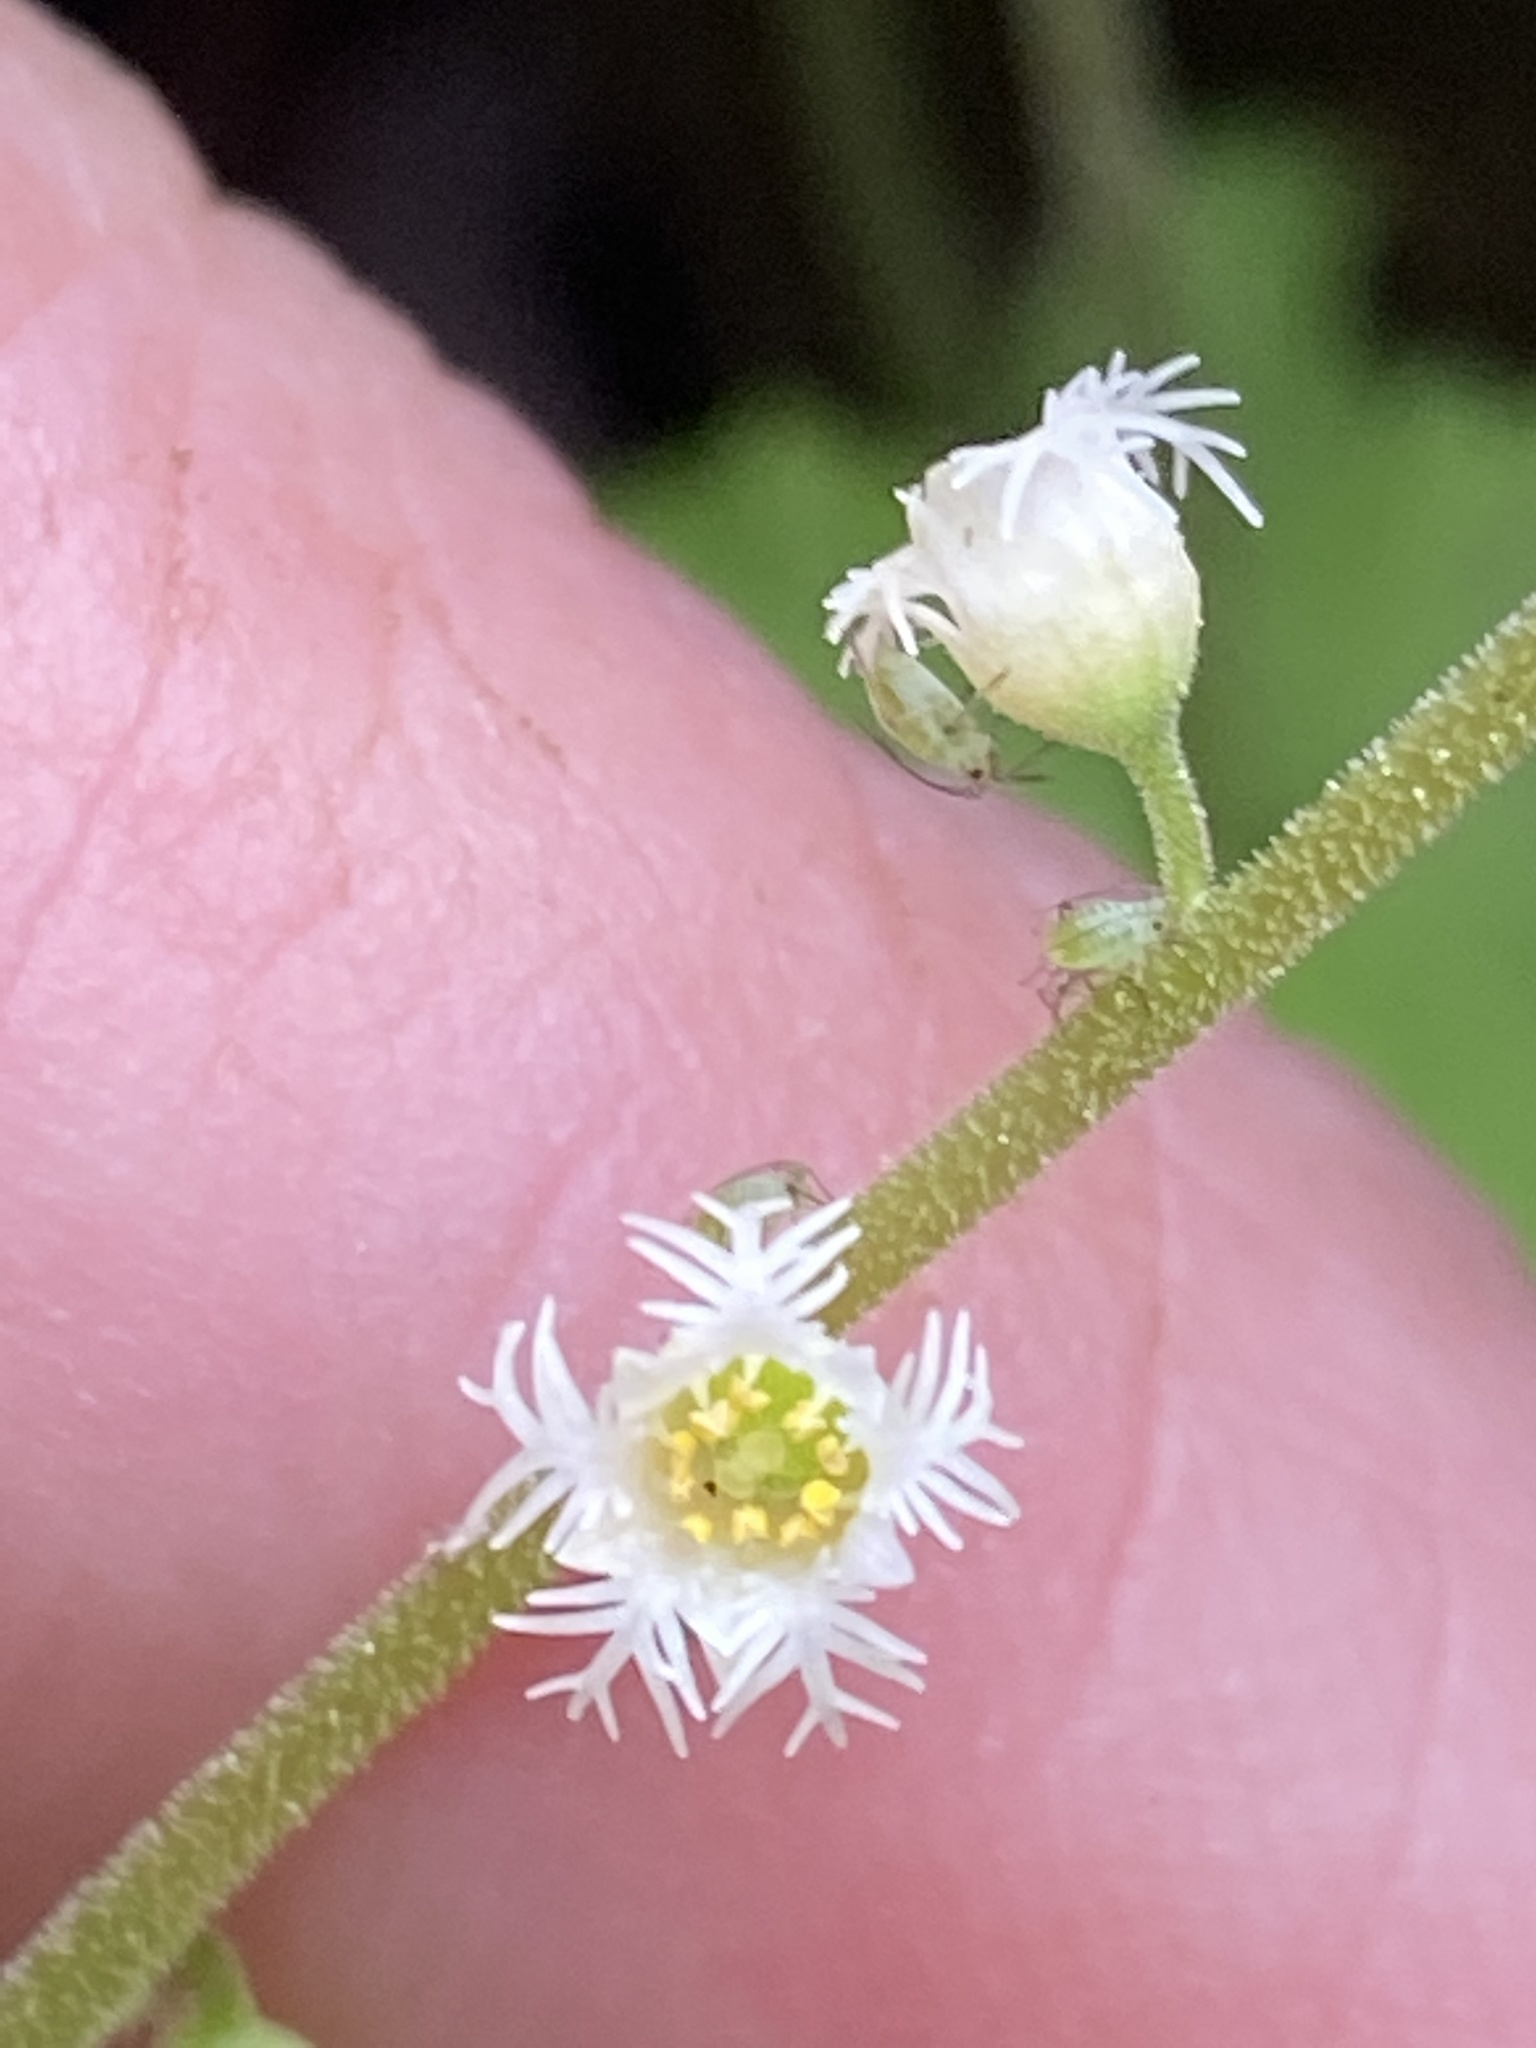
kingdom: Plantae
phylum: Tracheophyta
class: Magnoliopsida
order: Saxifragales
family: Saxifragaceae
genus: Mitella
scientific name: Mitella diphylla
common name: Coolwort
